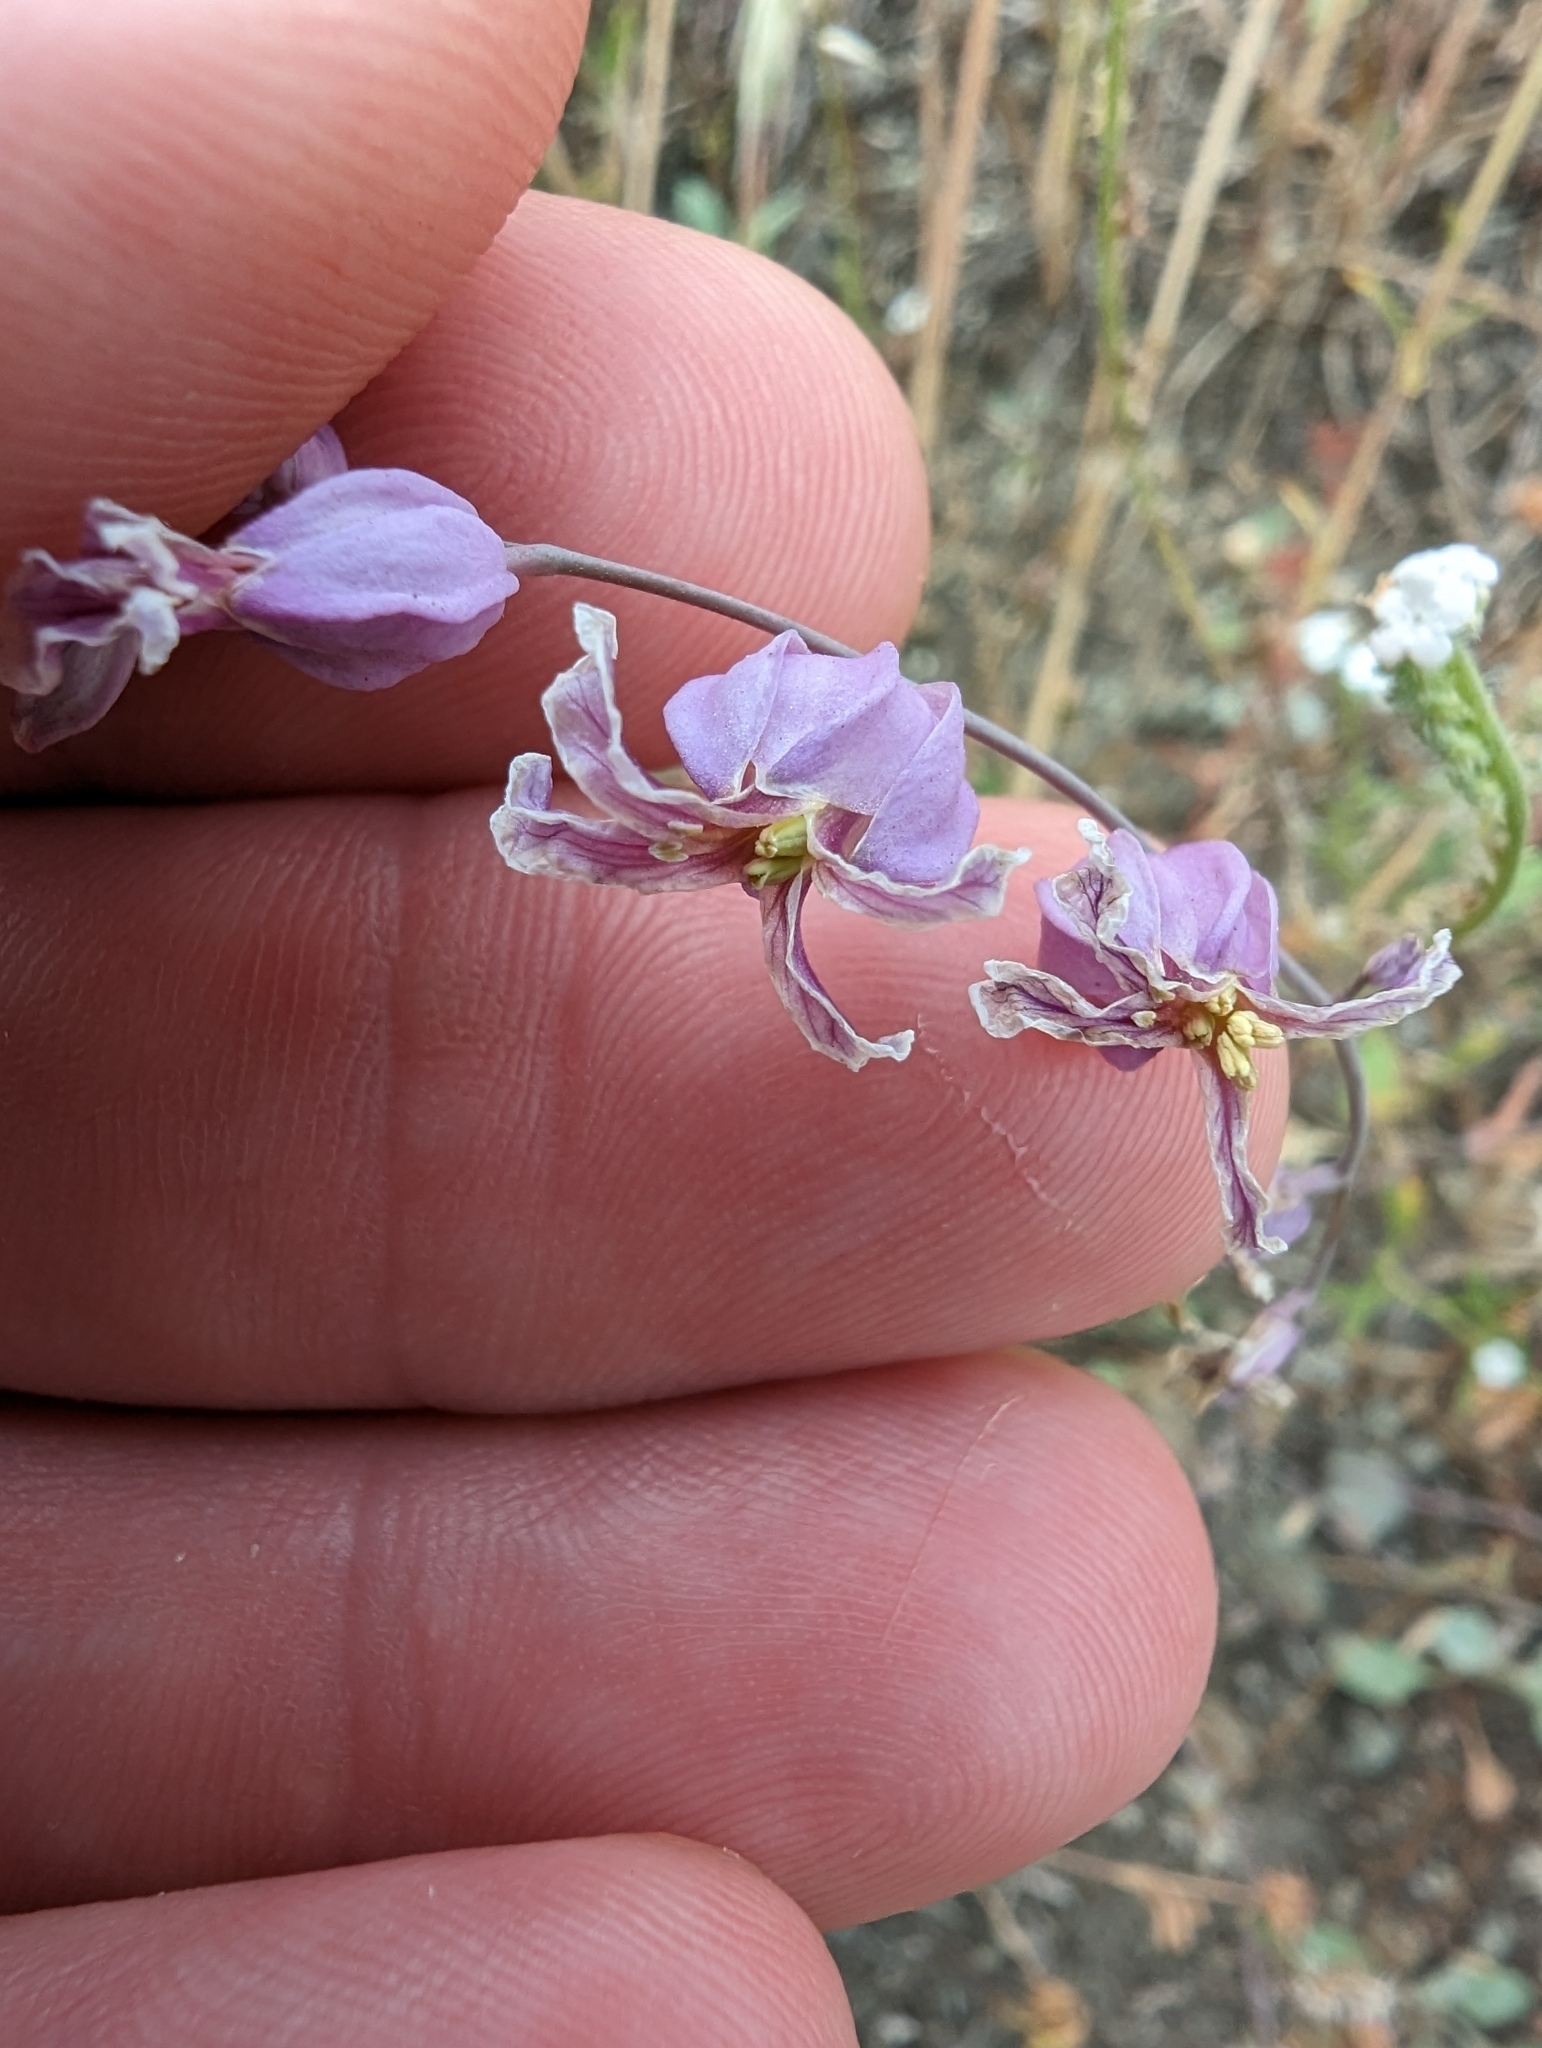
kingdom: Plantae
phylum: Tracheophyta
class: Magnoliopsida
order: Brassicales
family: Brassicaceae
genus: Streptanthus
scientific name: Streptanthus glandulosus
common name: Jewel-flower
